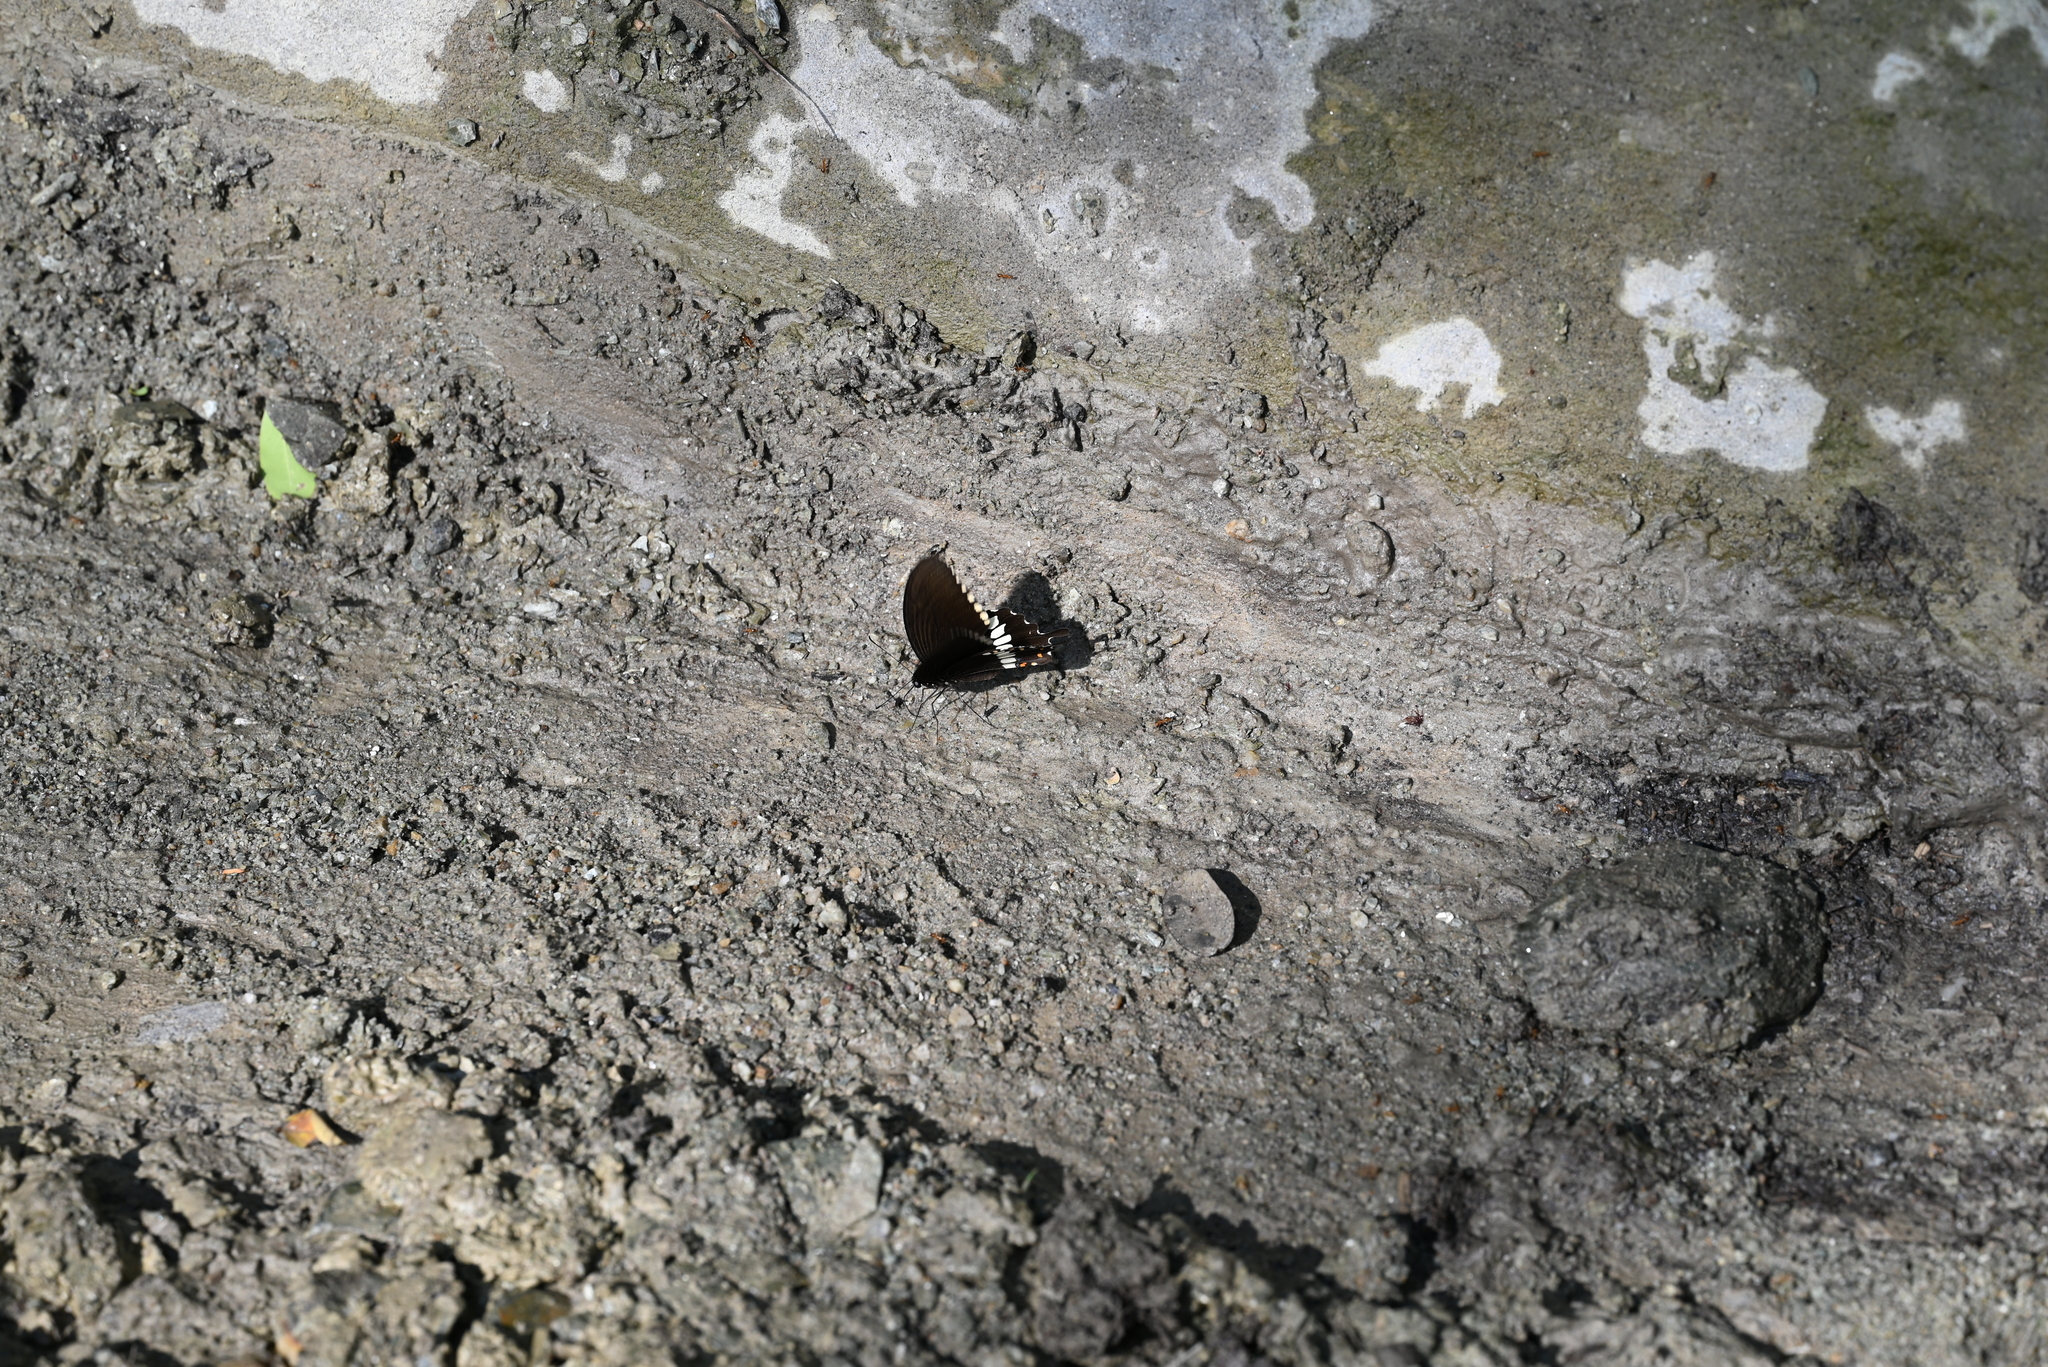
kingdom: Animalia
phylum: Arthropoda
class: Insecta
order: Lepidoptera
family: Papilionidae
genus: Papilio
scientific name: Papilio polytes
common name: Common mormon
